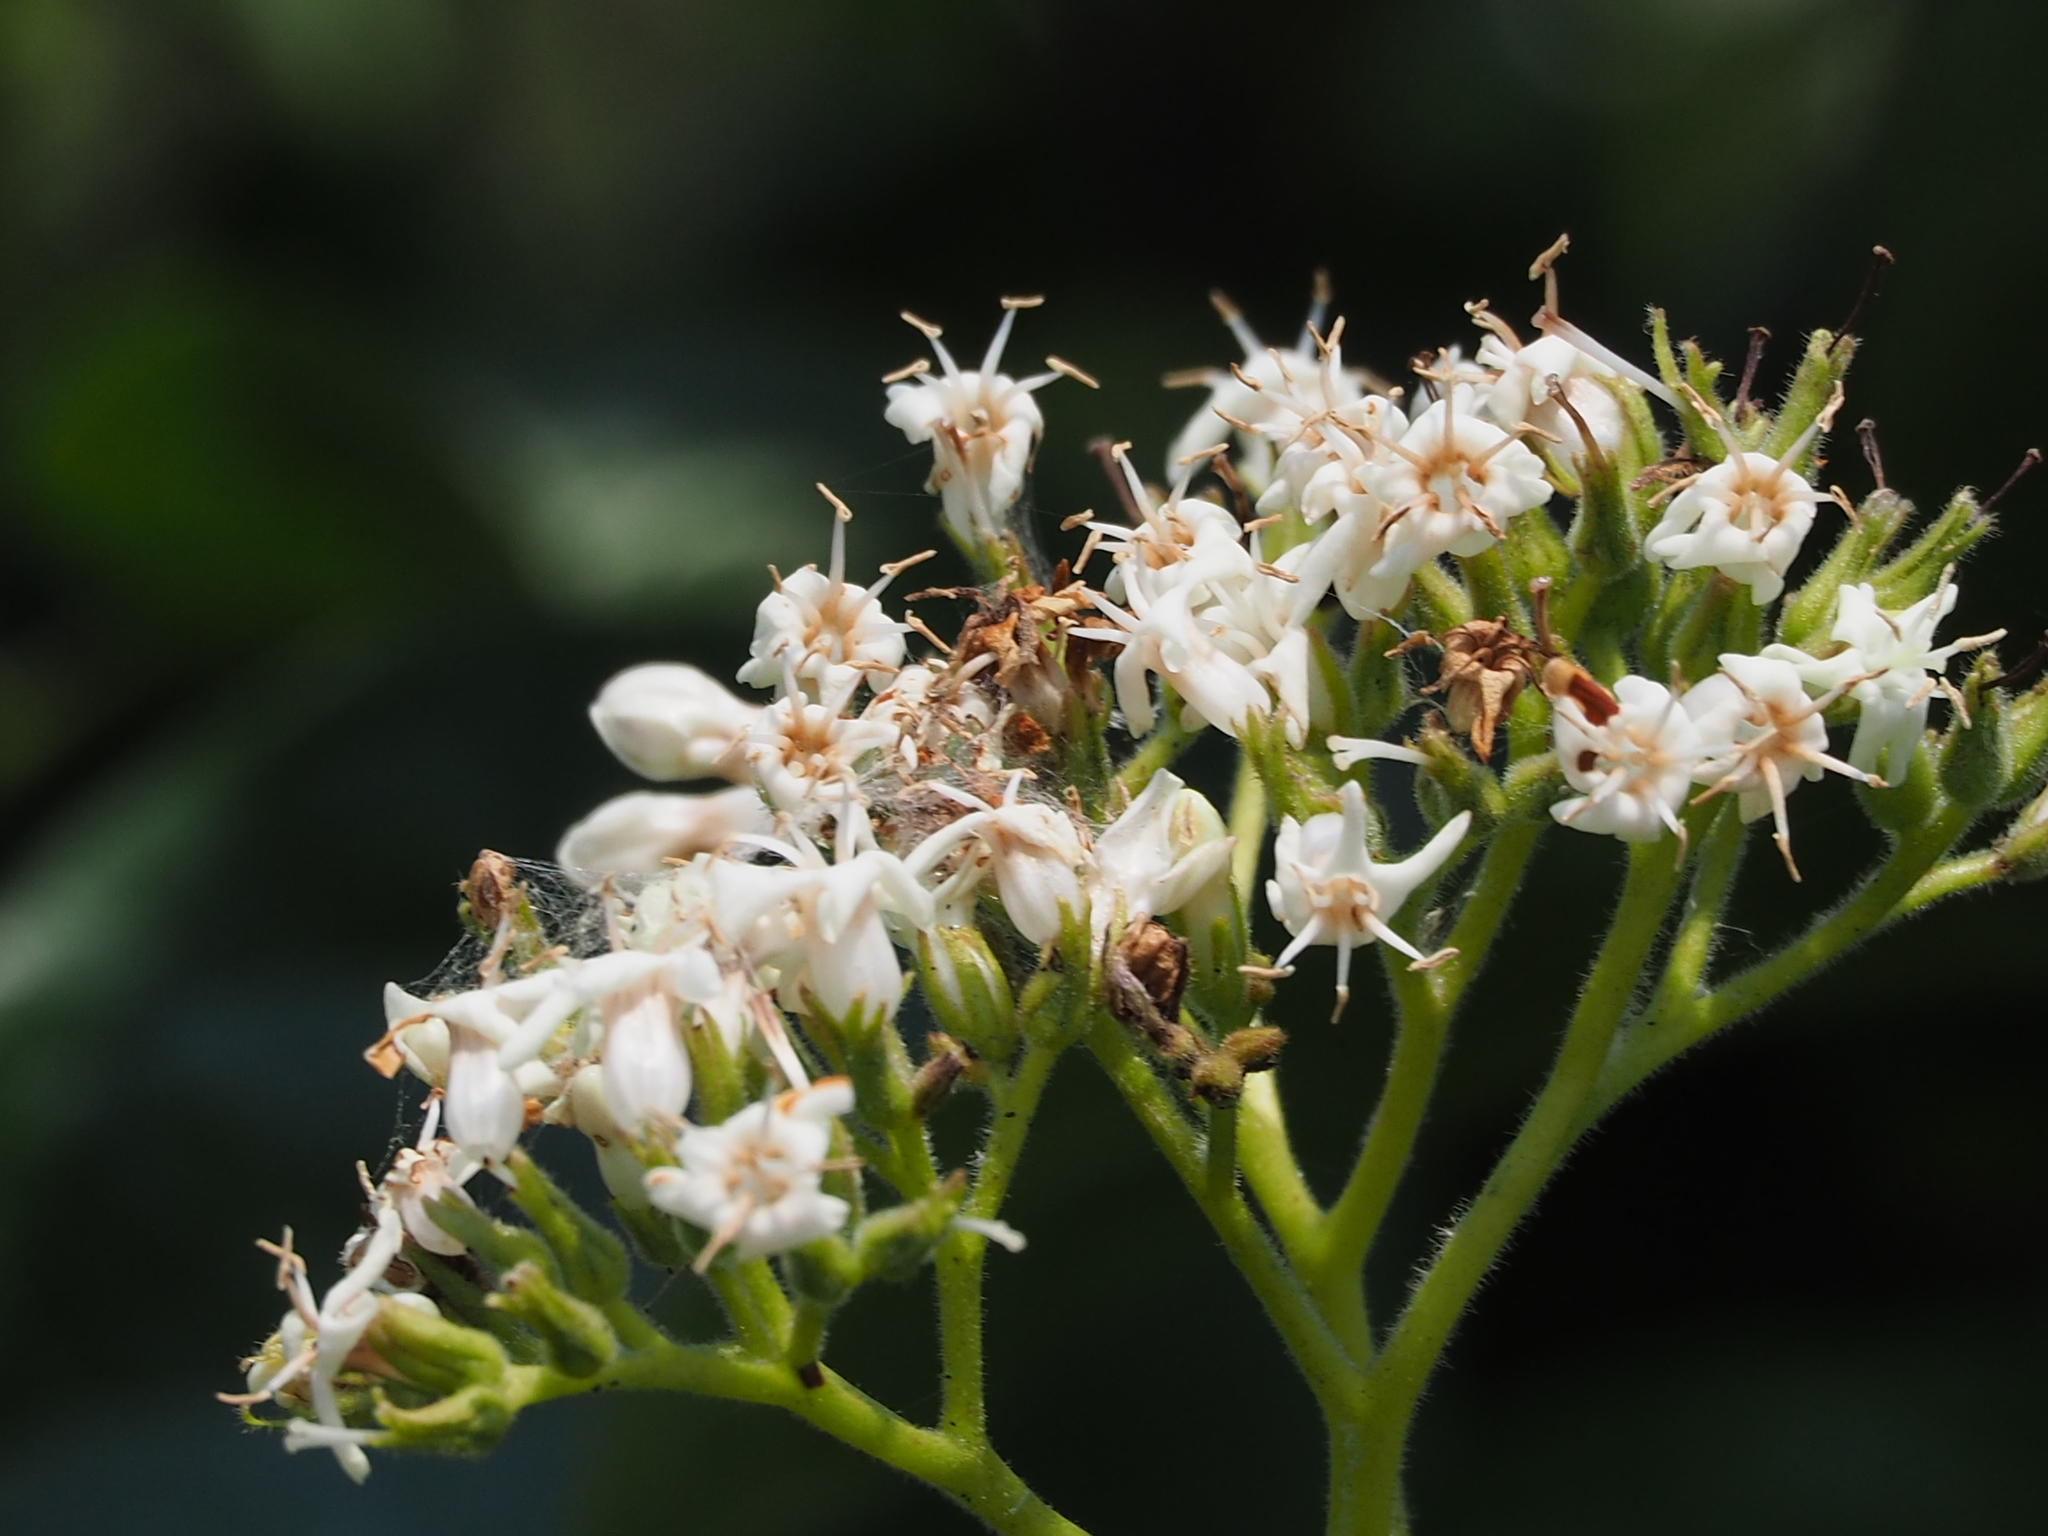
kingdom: Plantae
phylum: Tracheophyta
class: Magnoliopsida
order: Boraginales
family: Ehretiaceae
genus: Ehretia
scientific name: Ehretia resinosa
